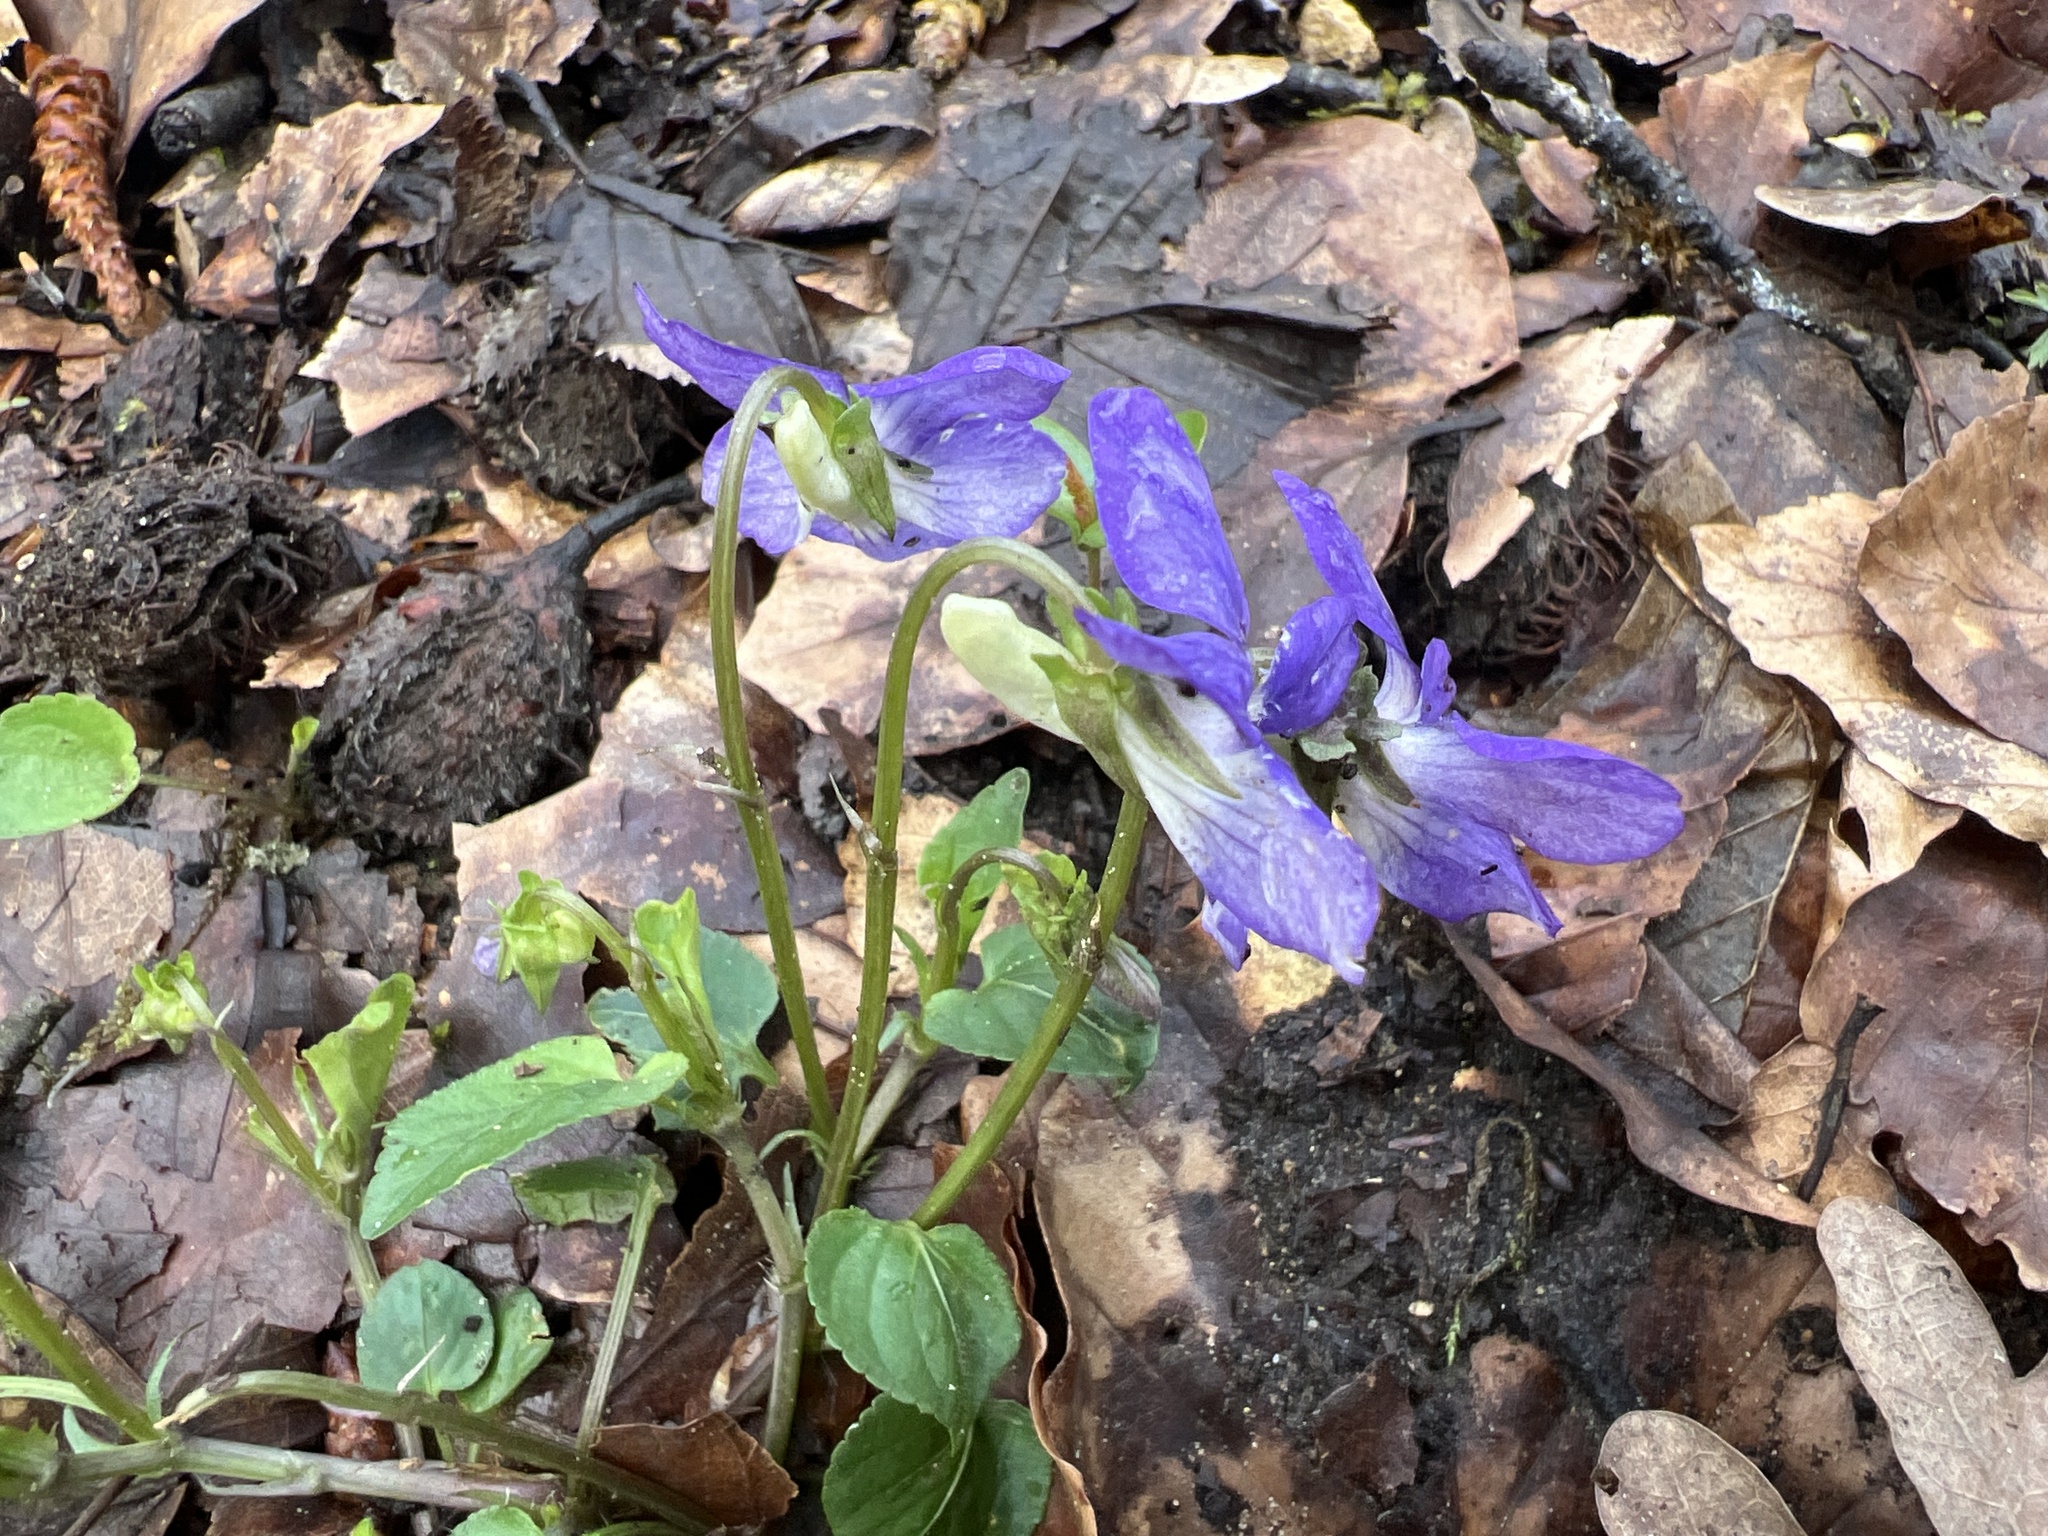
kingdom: Plantae
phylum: Tracheophyta
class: Magnoliopsida
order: Malpighiales
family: Violaceae
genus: Viola
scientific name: Viola riviniana
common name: Common dog-violet
